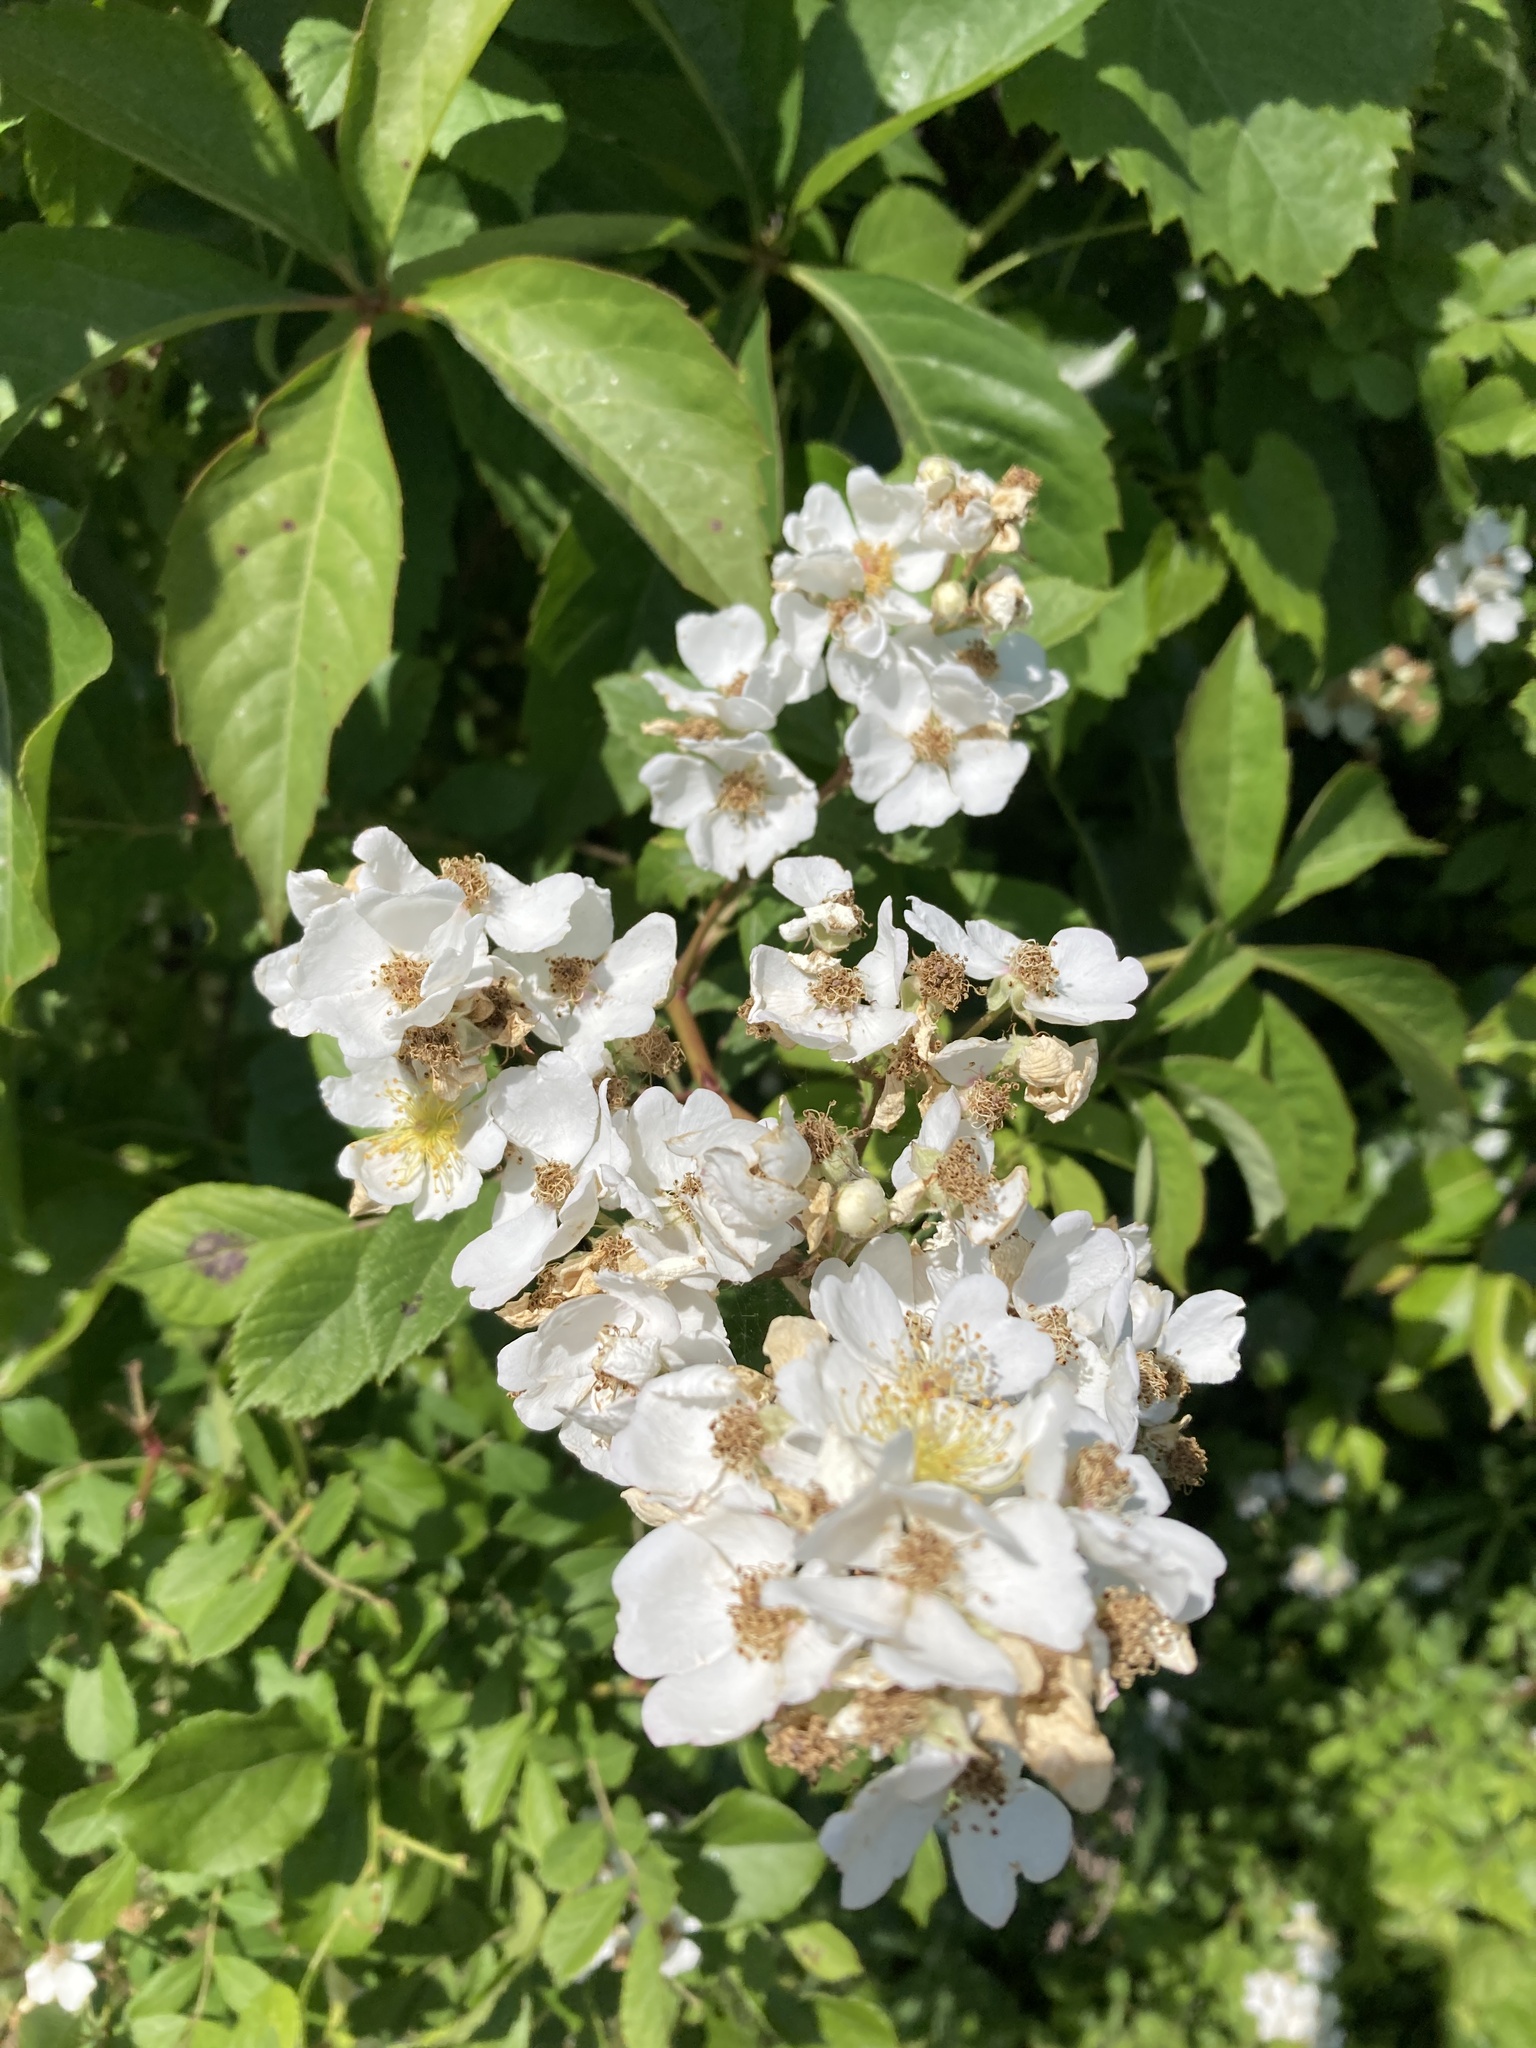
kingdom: Plantae
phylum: Tracheophyta
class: Magnoliopsida
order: Rosales
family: Rosaceae
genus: Rosa
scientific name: Rosa multiflora
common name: Multiflora rose
